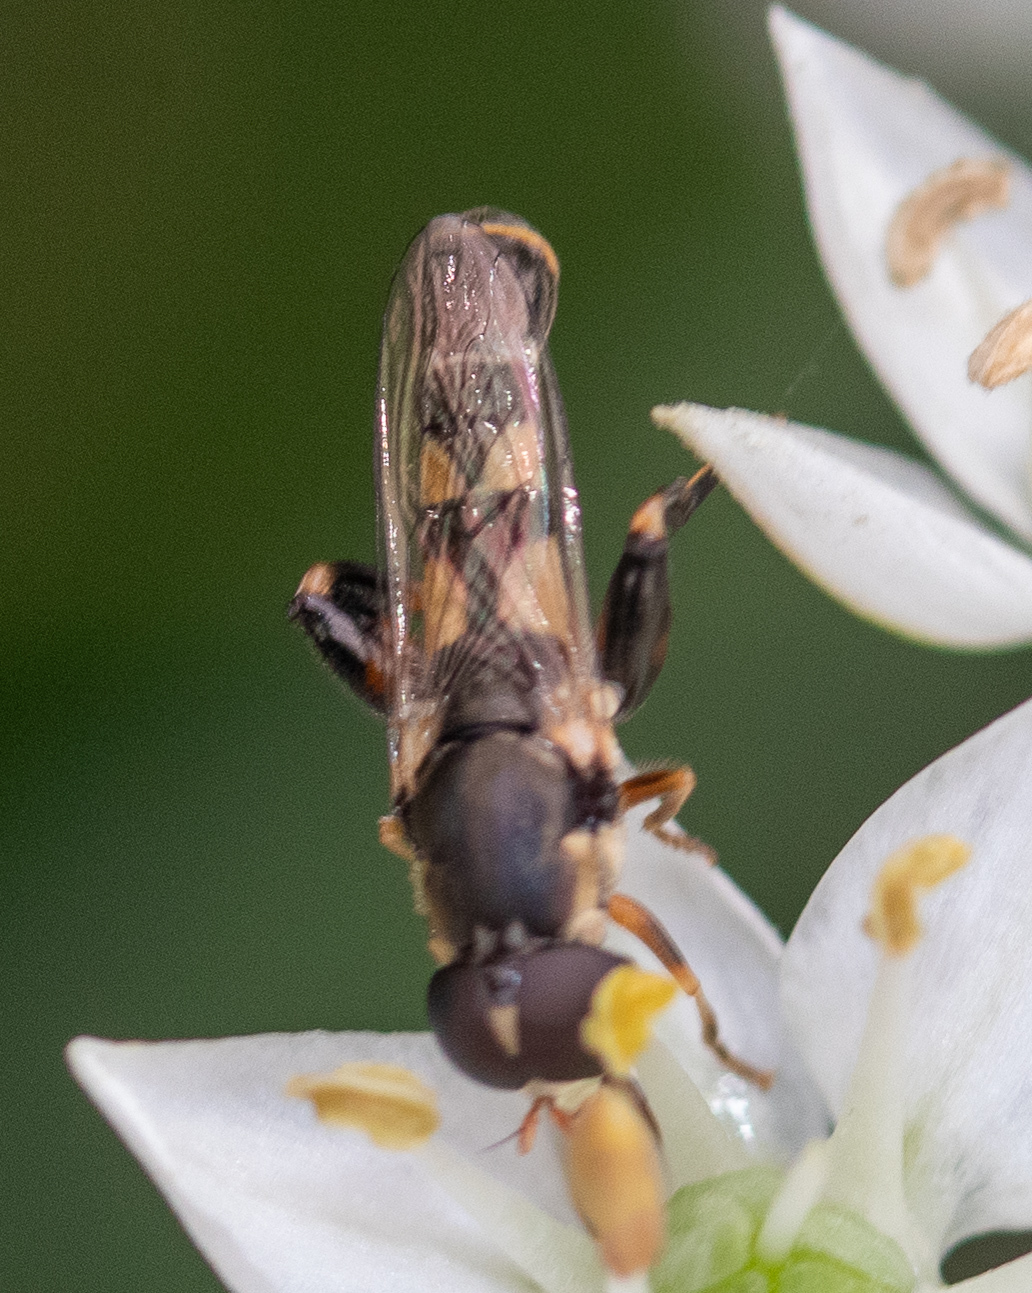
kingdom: Animalia
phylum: Arthropoda
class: Insecta
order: Diptera
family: Syrphidae
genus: Syritta
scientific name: Syritta pipiens
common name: Hover fly
